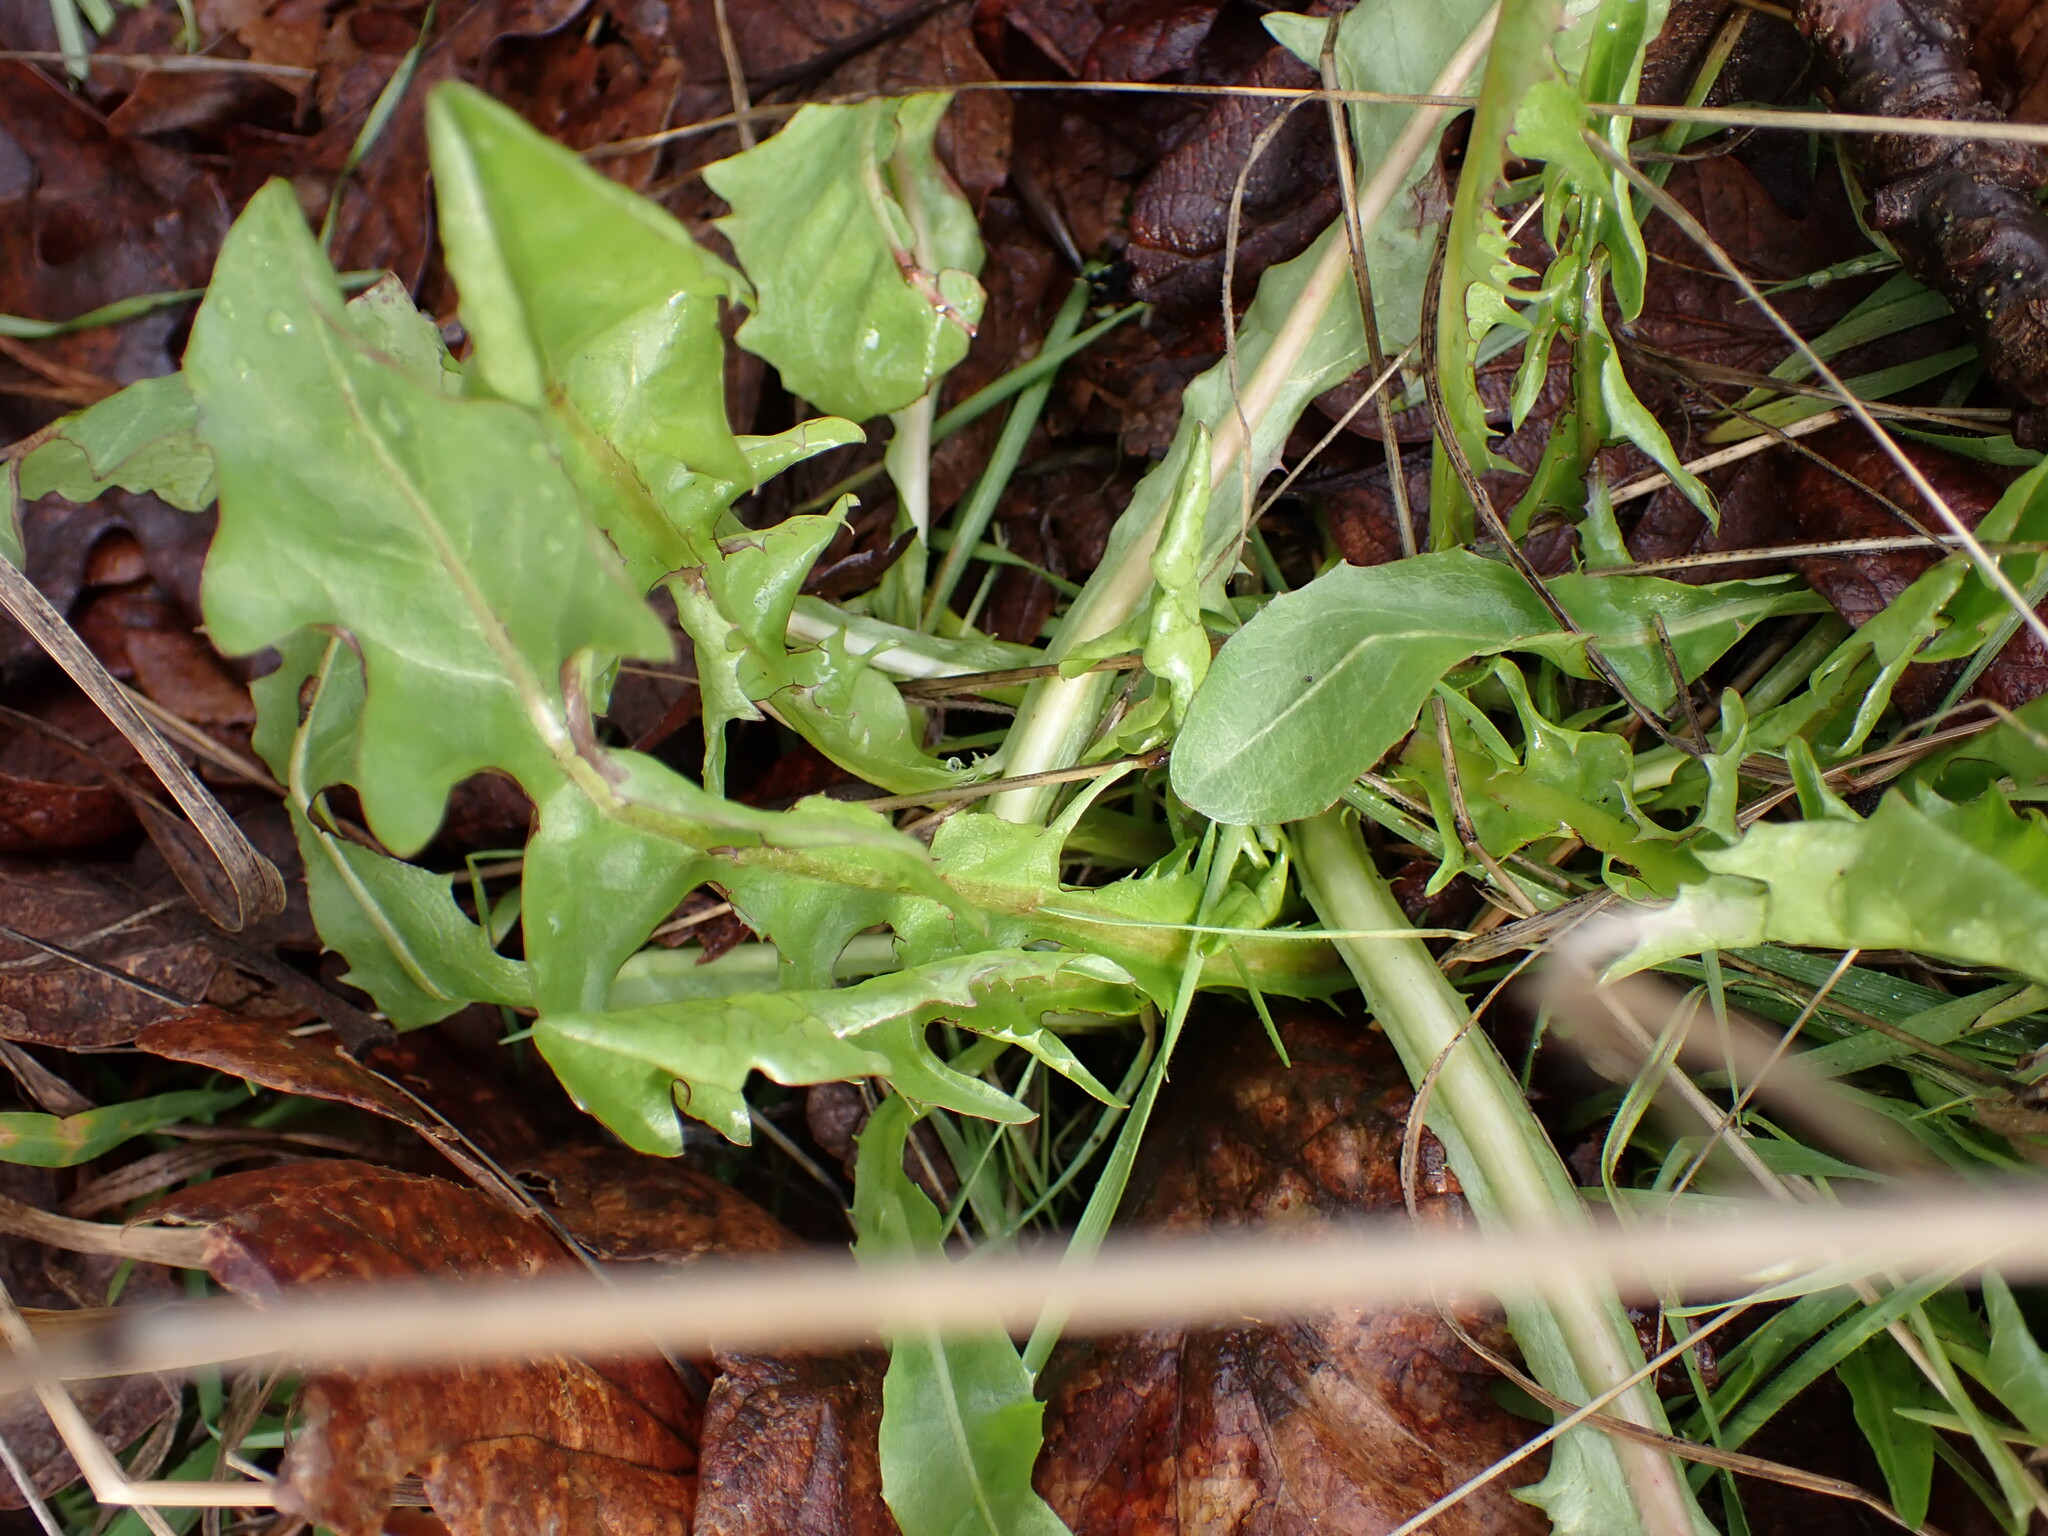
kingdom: Plantae
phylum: Tracheophyta
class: Magnoliopsida
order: Asterales
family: Asteraceae
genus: Taraxacum
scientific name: Taraxacum officinale
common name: Common dandelion
